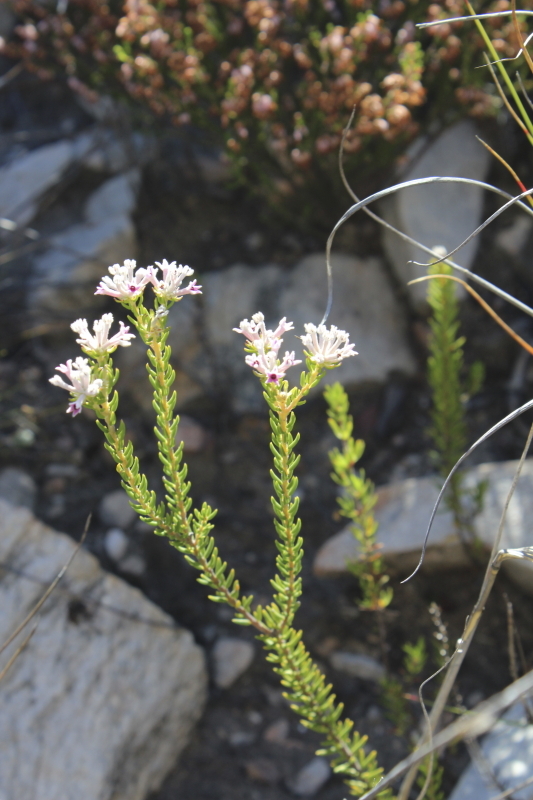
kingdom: Plantae
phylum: Tracheophyta
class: Magnoliopsida
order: Rosales
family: Rhamnaceae
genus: Phylica
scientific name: Phylica lachneaeoides
